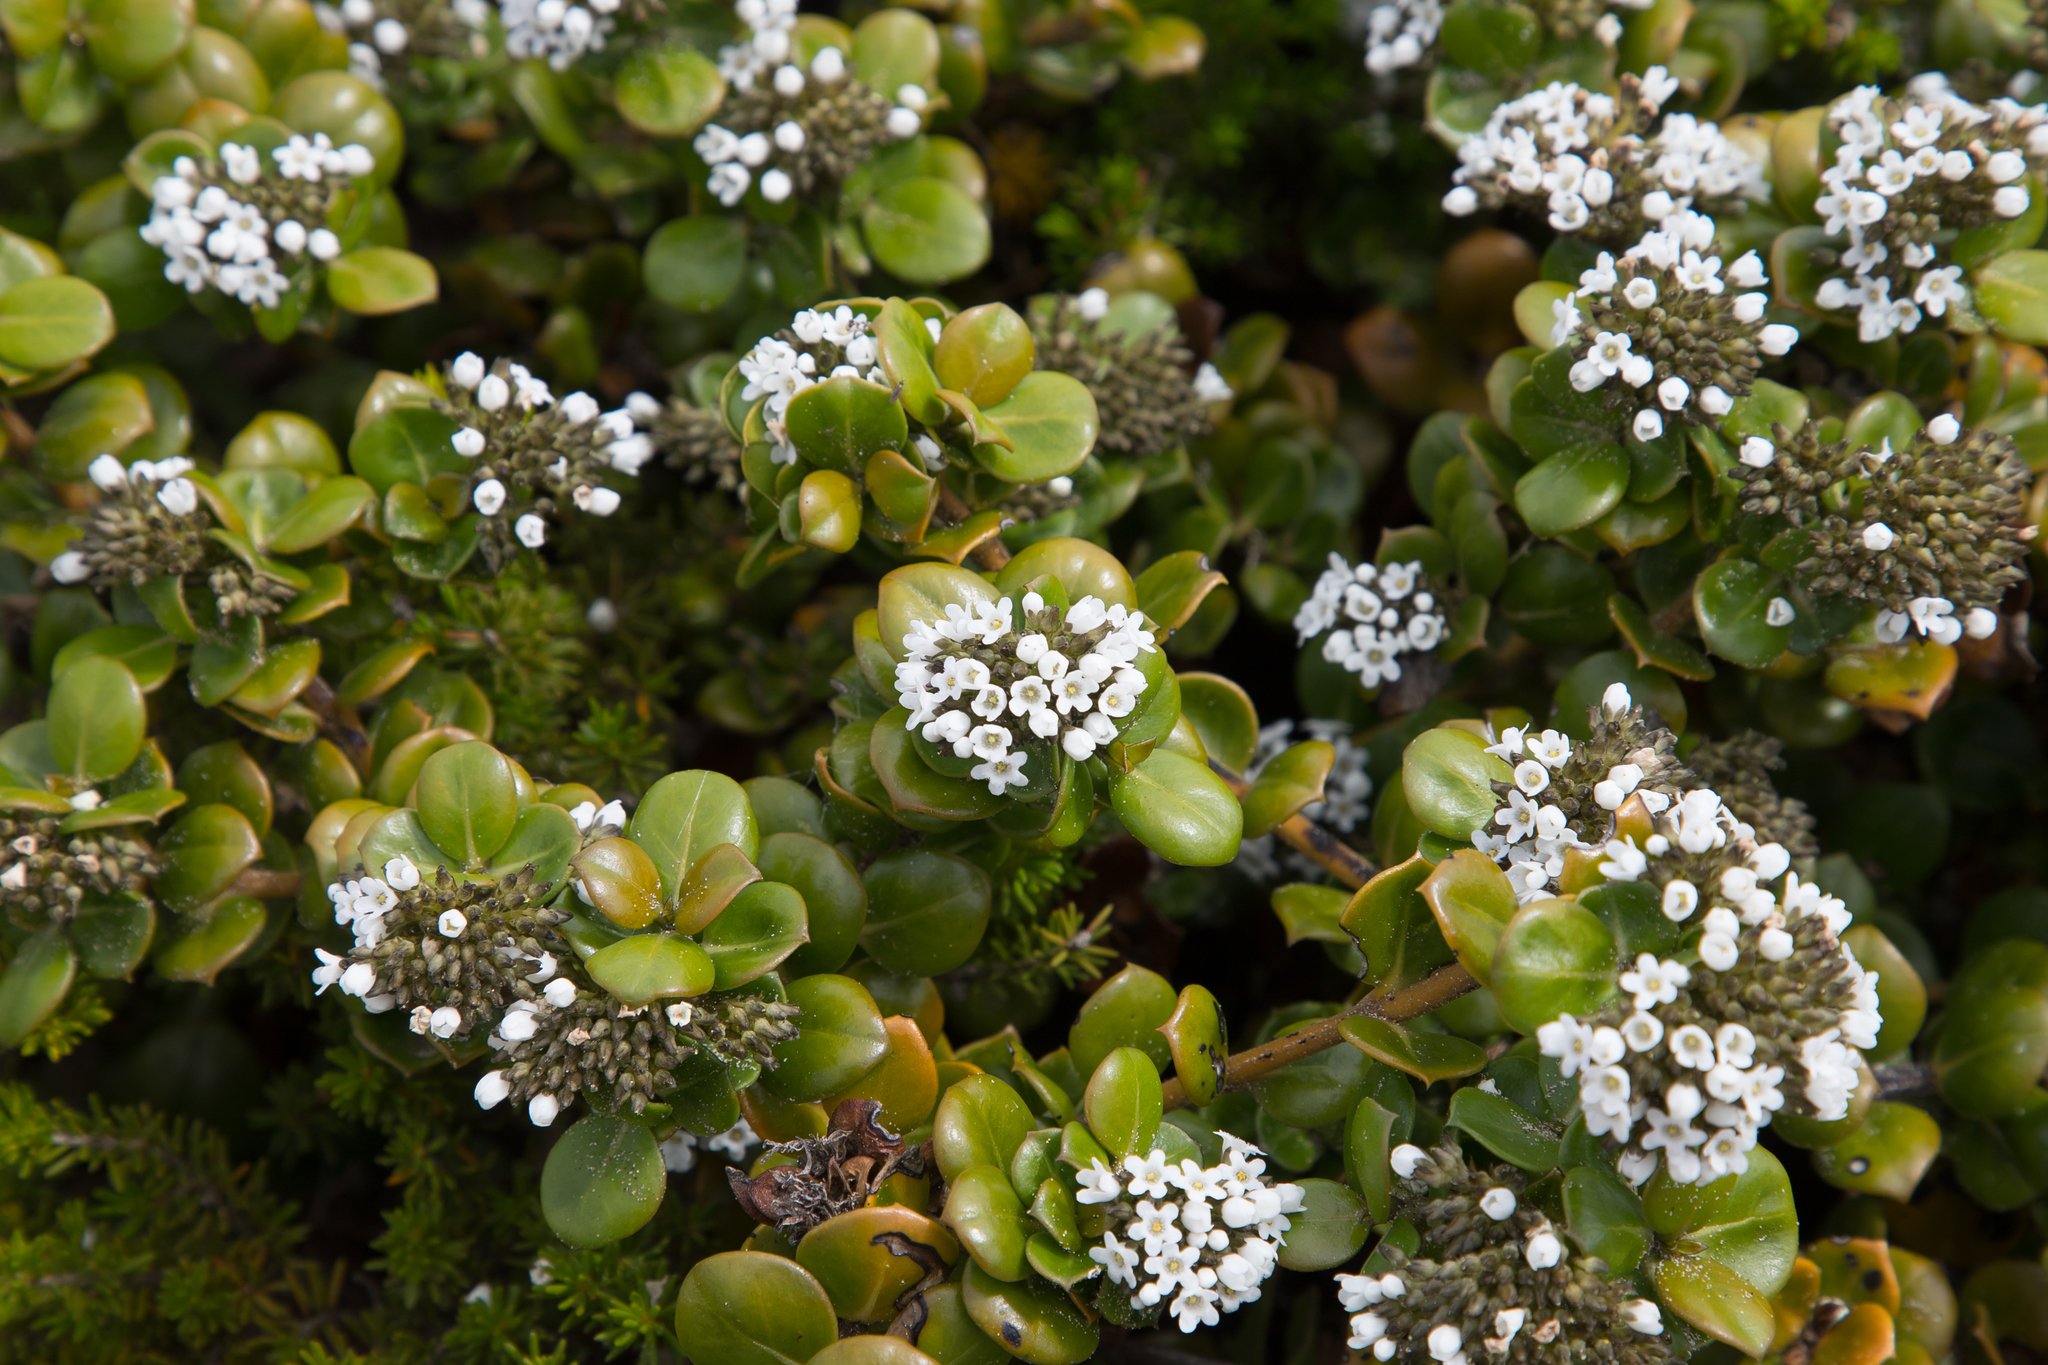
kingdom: Plantae
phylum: Tracheophyta
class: Magnoliopsida
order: Gentianales
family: Loganiaceae
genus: Logania
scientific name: Logania crassifolia
